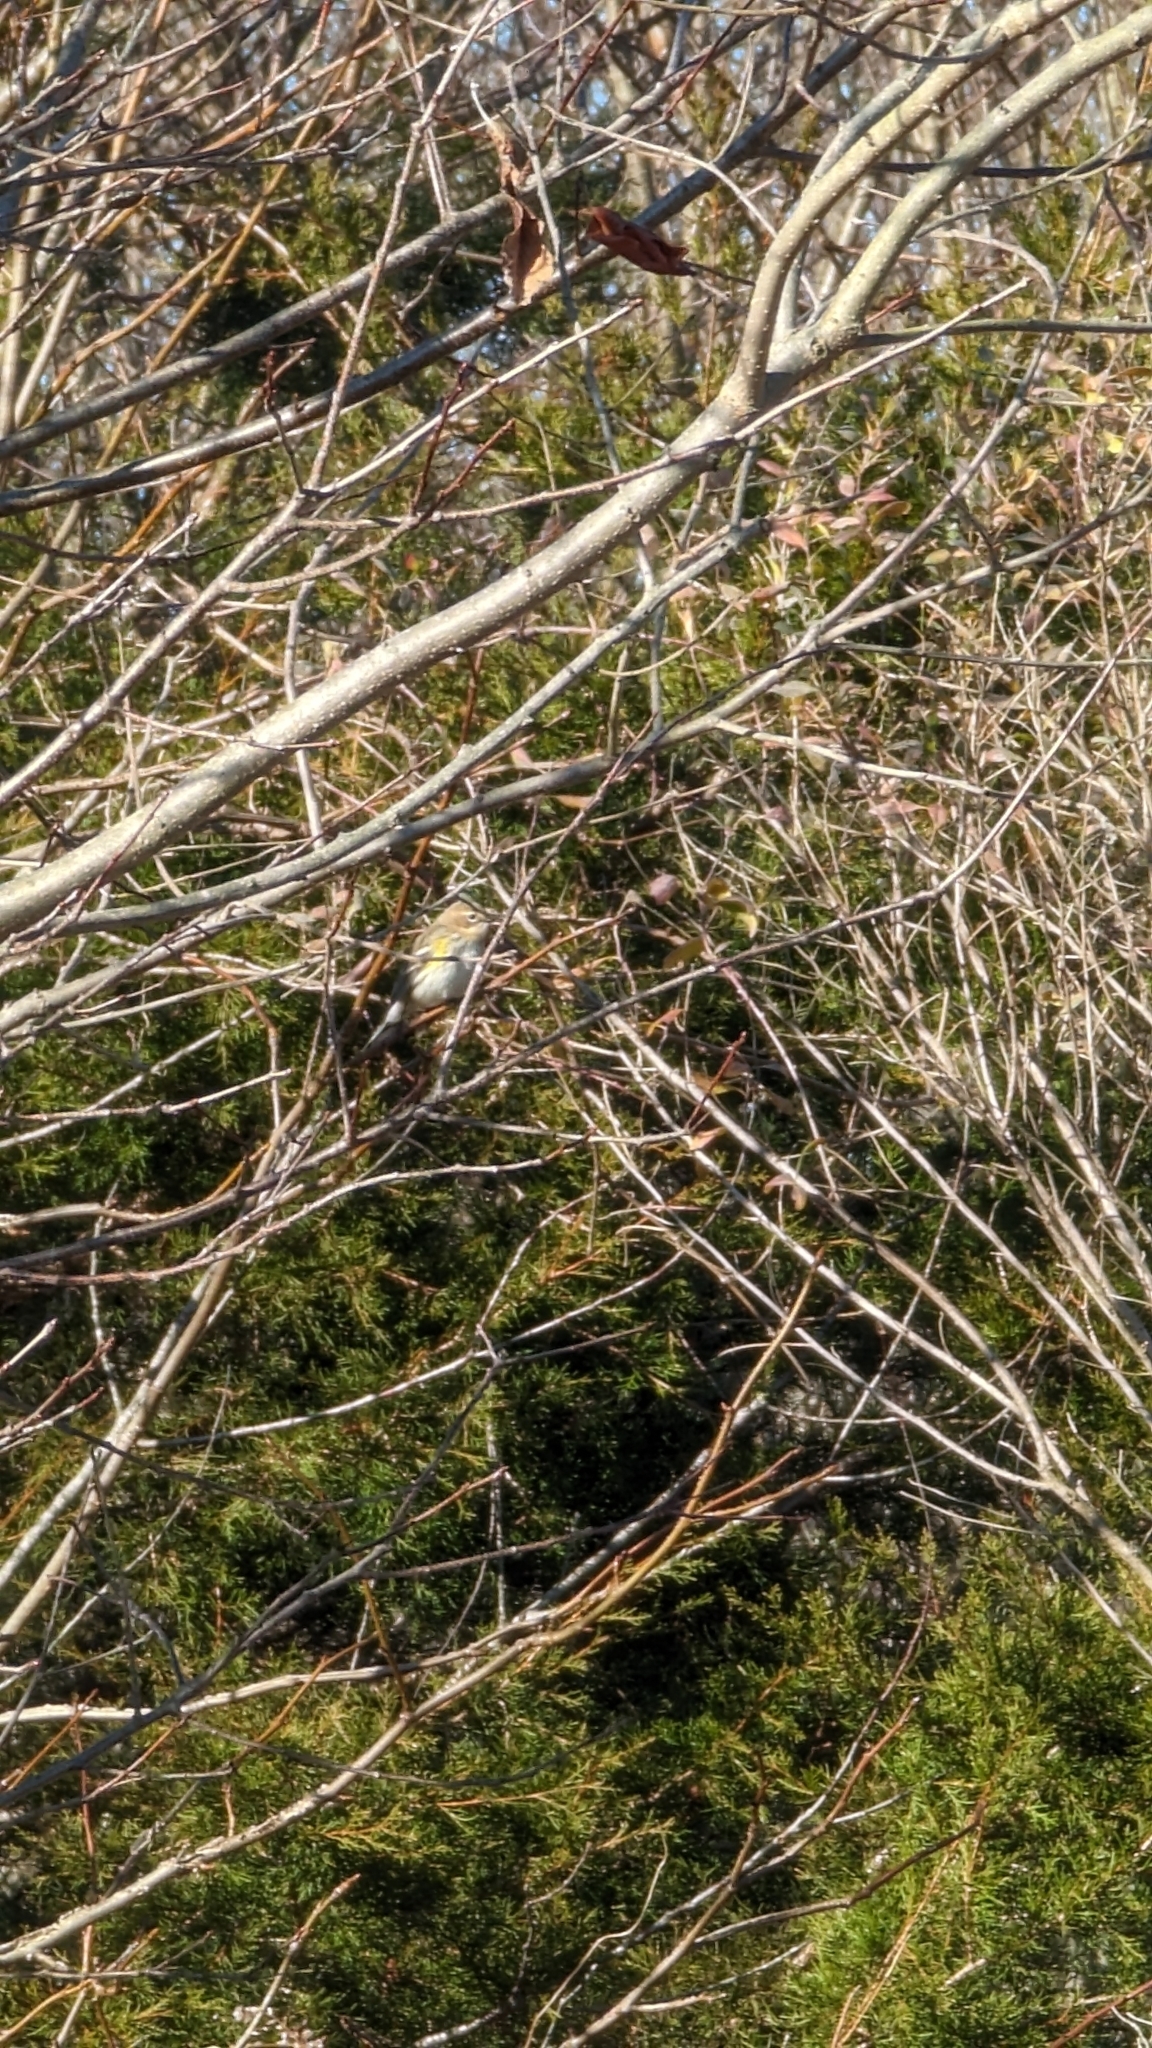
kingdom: Animalia
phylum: Chordata
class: Aves
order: Passeriformes
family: Parulidae
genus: Setophaga
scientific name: Setophaga coronata
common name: Myrtle warbler
